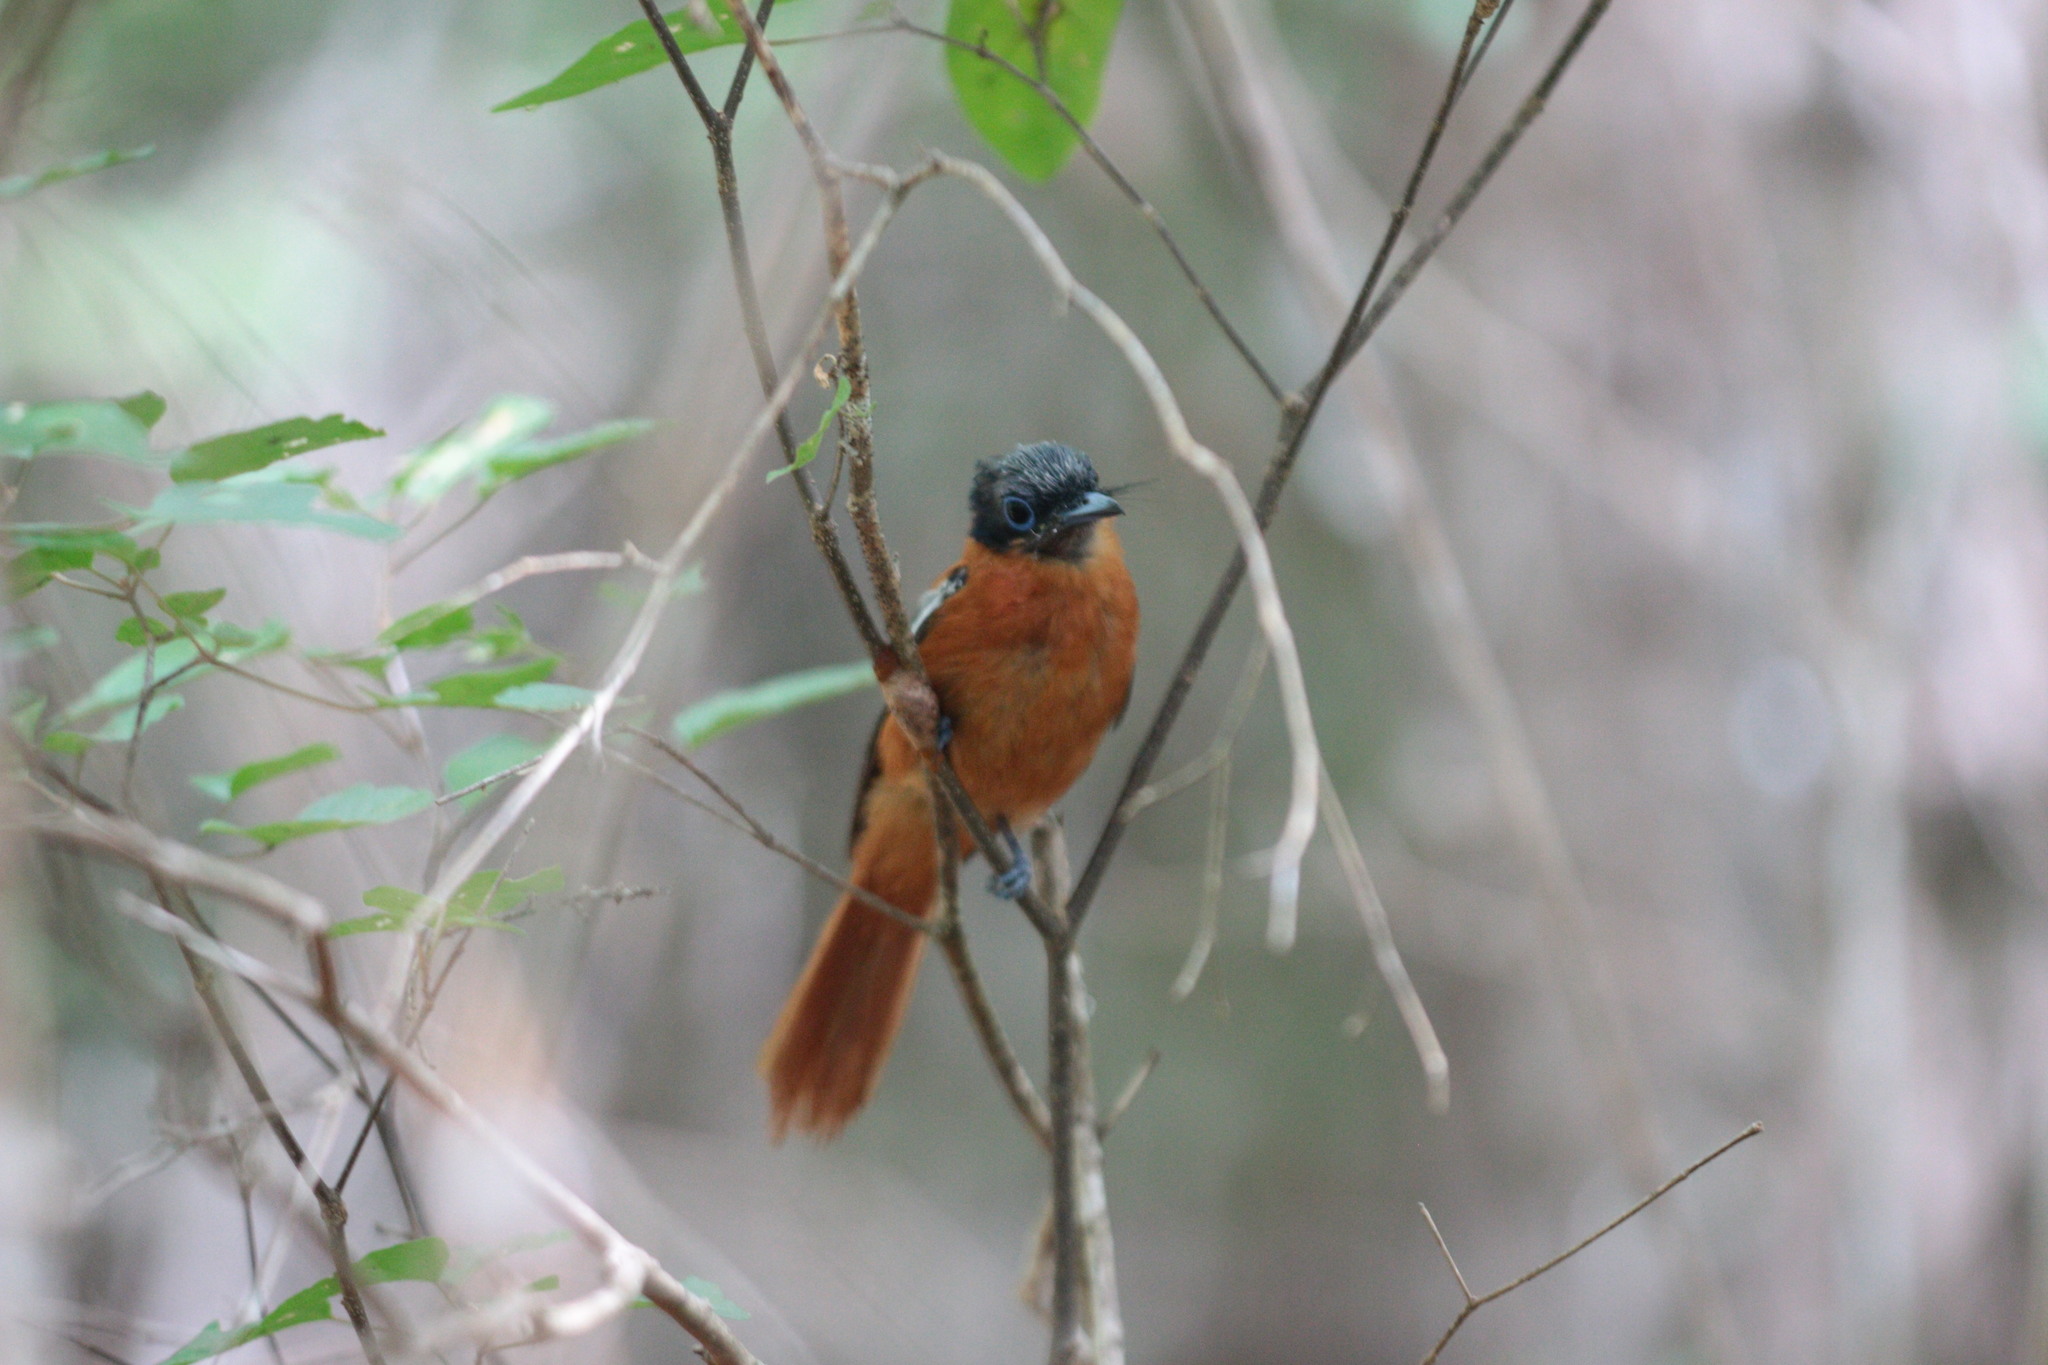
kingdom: Animalia
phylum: Chordata
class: Aves
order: Passeriformes
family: Monarchidae
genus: Terpsiphone
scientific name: Terpsiphone mutata
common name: Malagasy paradise flycatcher
